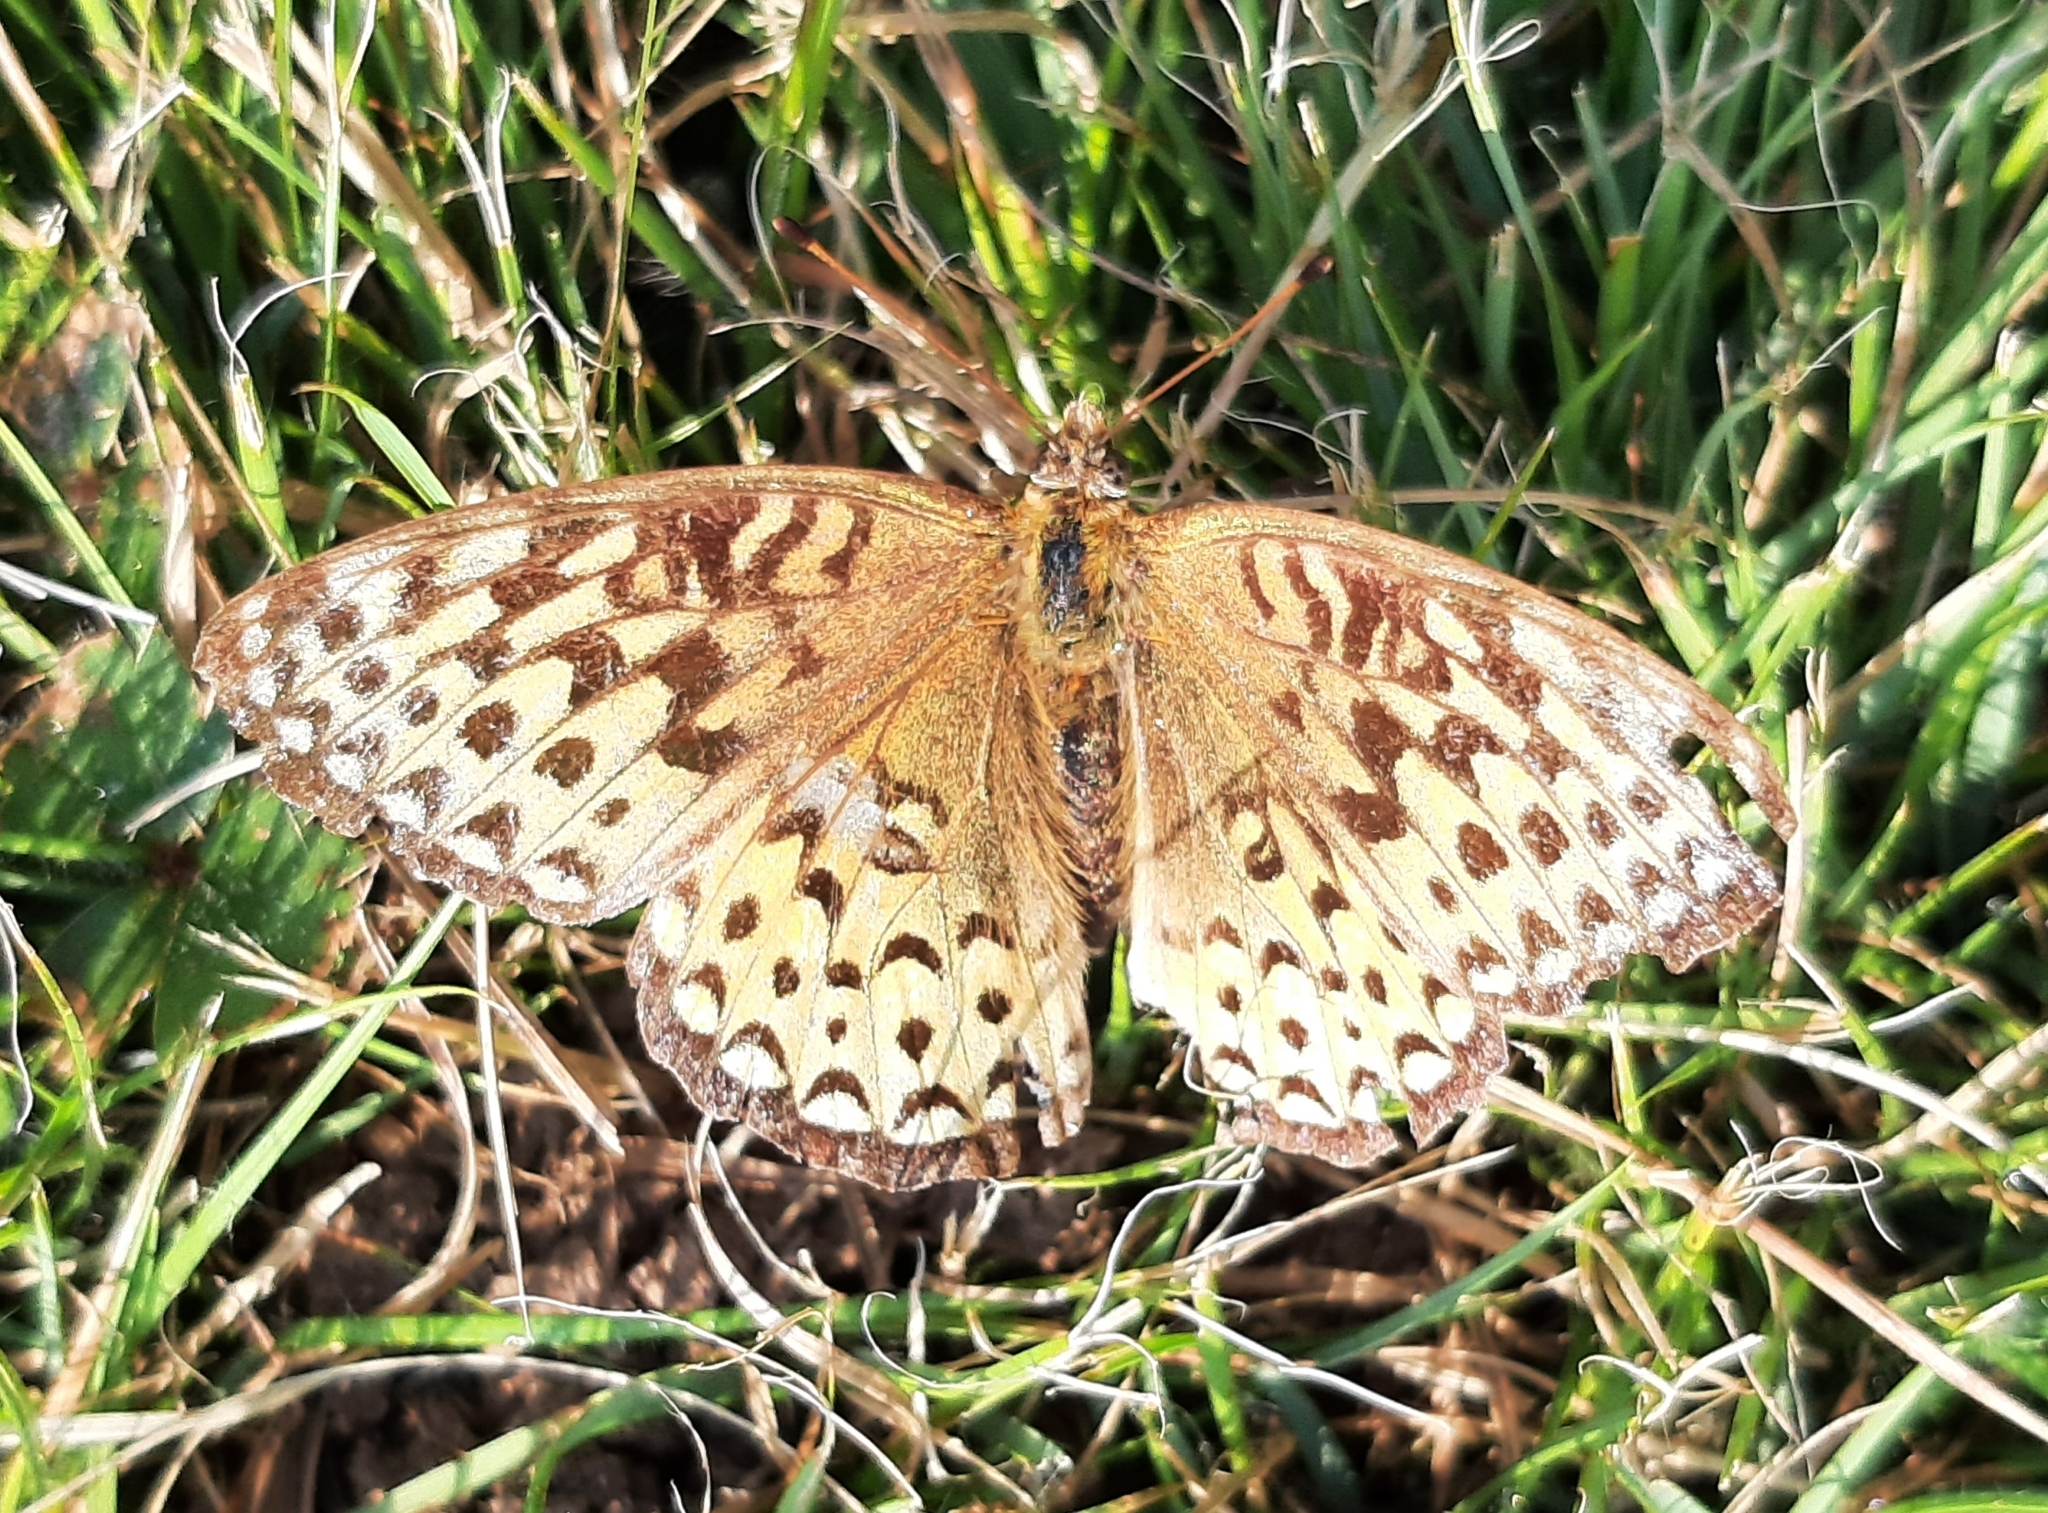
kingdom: Animalia
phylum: Arthropoda
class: Insecta
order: Lepidoptera
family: Nymphalidae
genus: Speyeria
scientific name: Speyeria atlantis
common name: Atlantis fritillary
